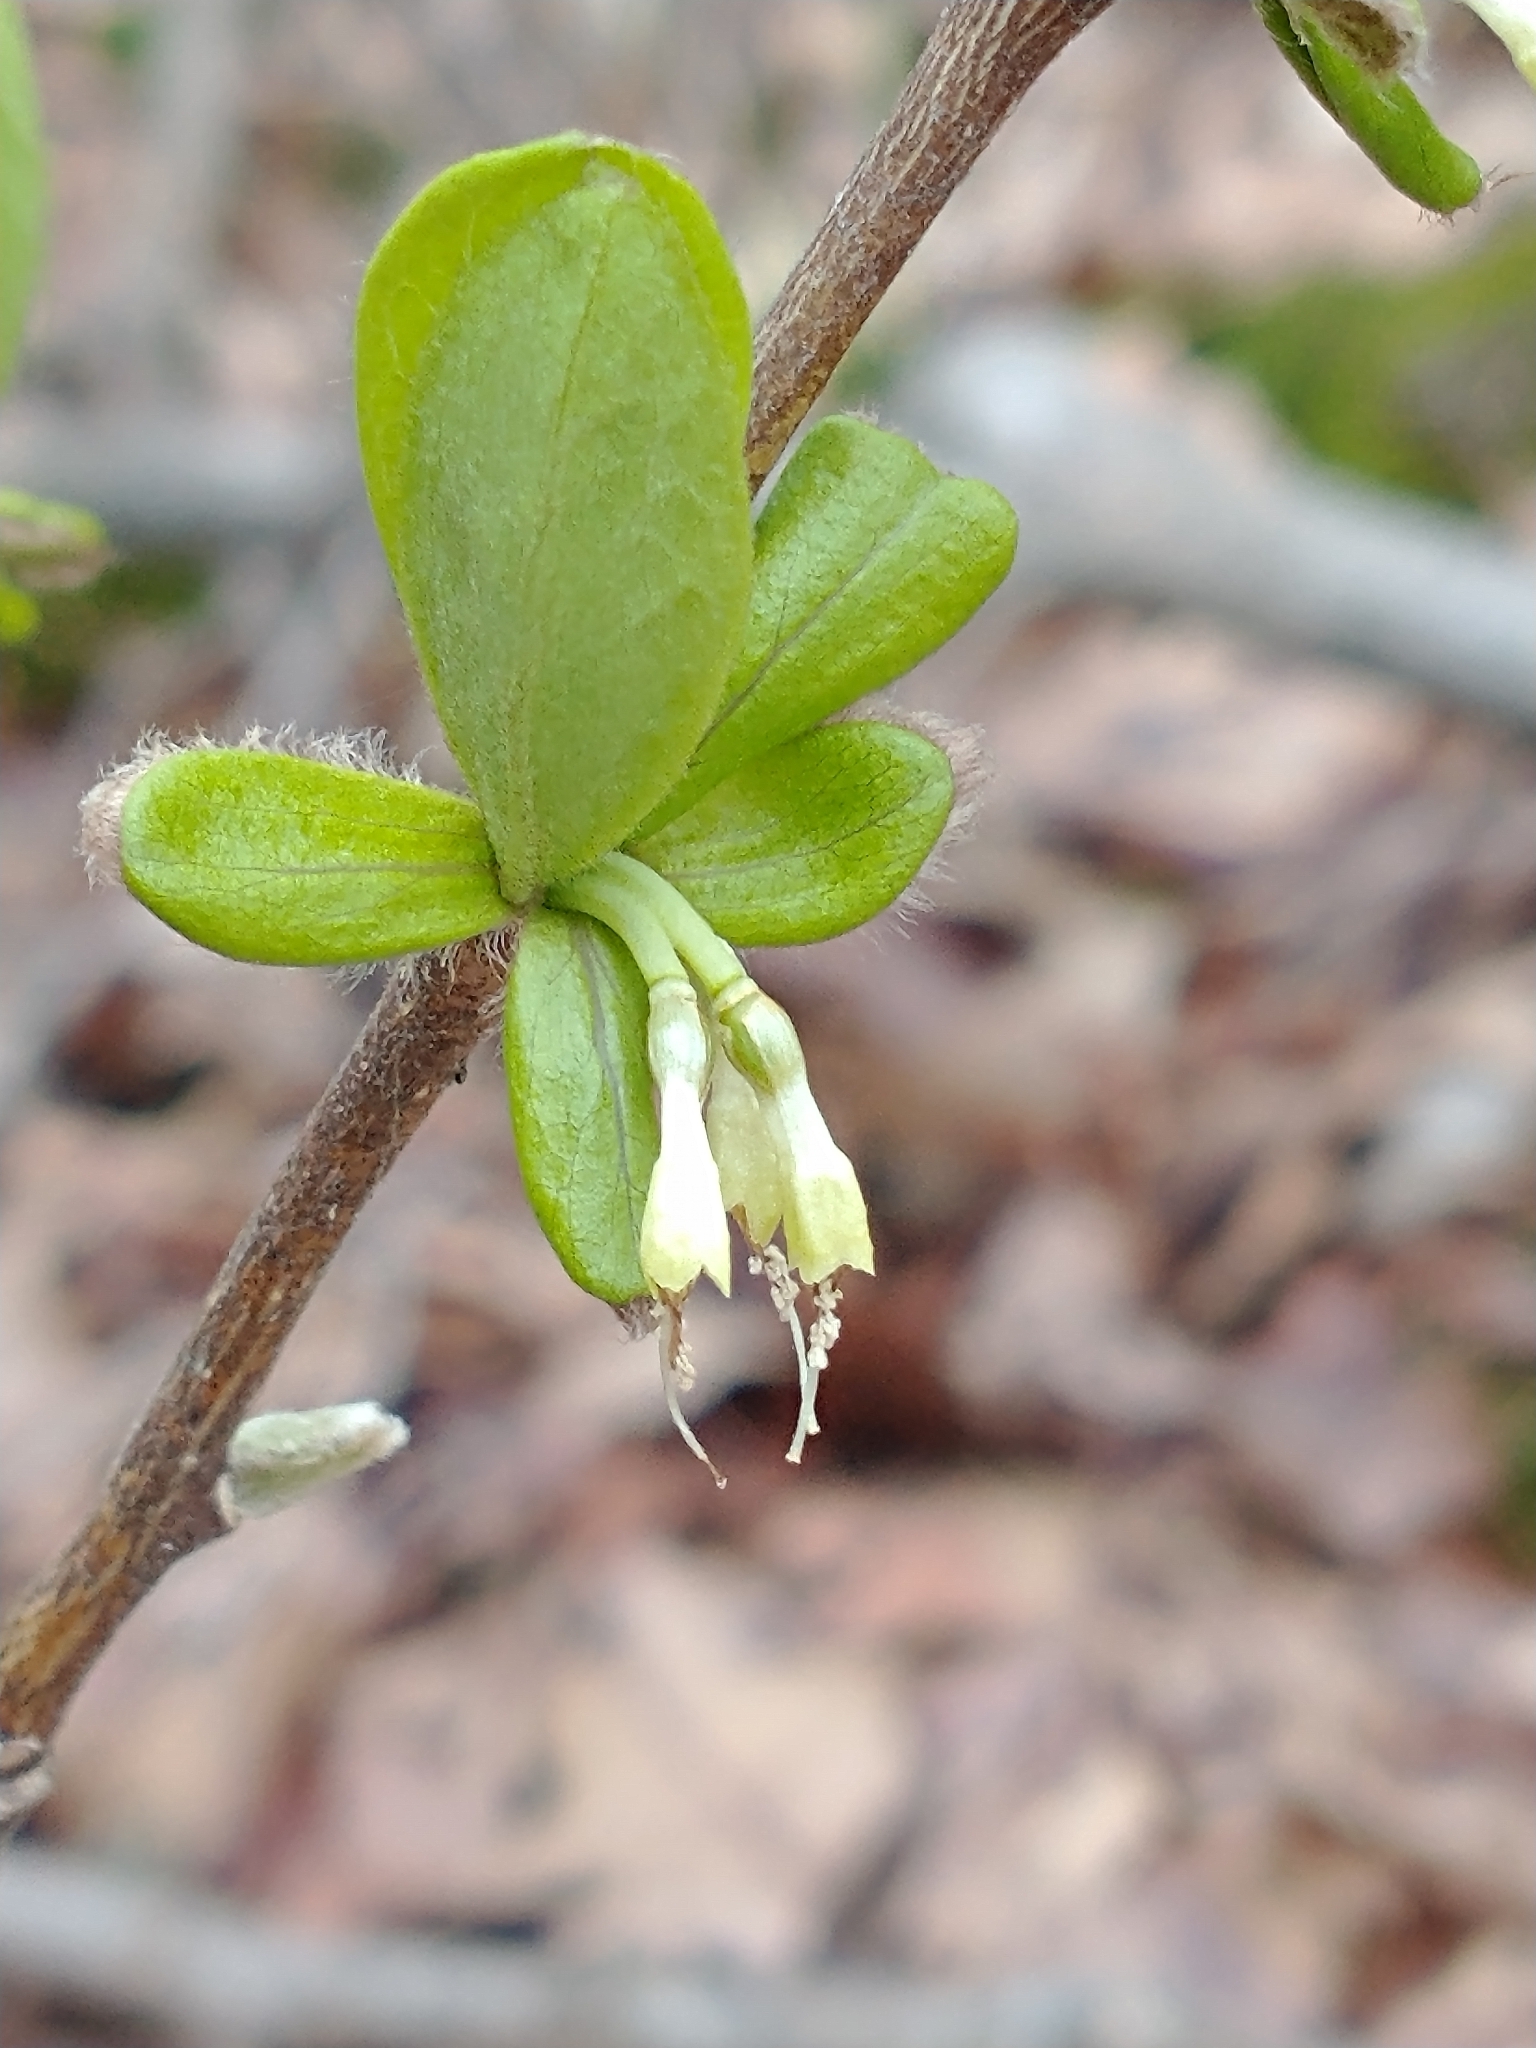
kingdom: Plantae
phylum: Tracheophyta
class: Magnoliopsida
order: Malvales
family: Thymelaeaceae
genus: Dirca
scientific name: Dirca palustris
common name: Leatherwood
